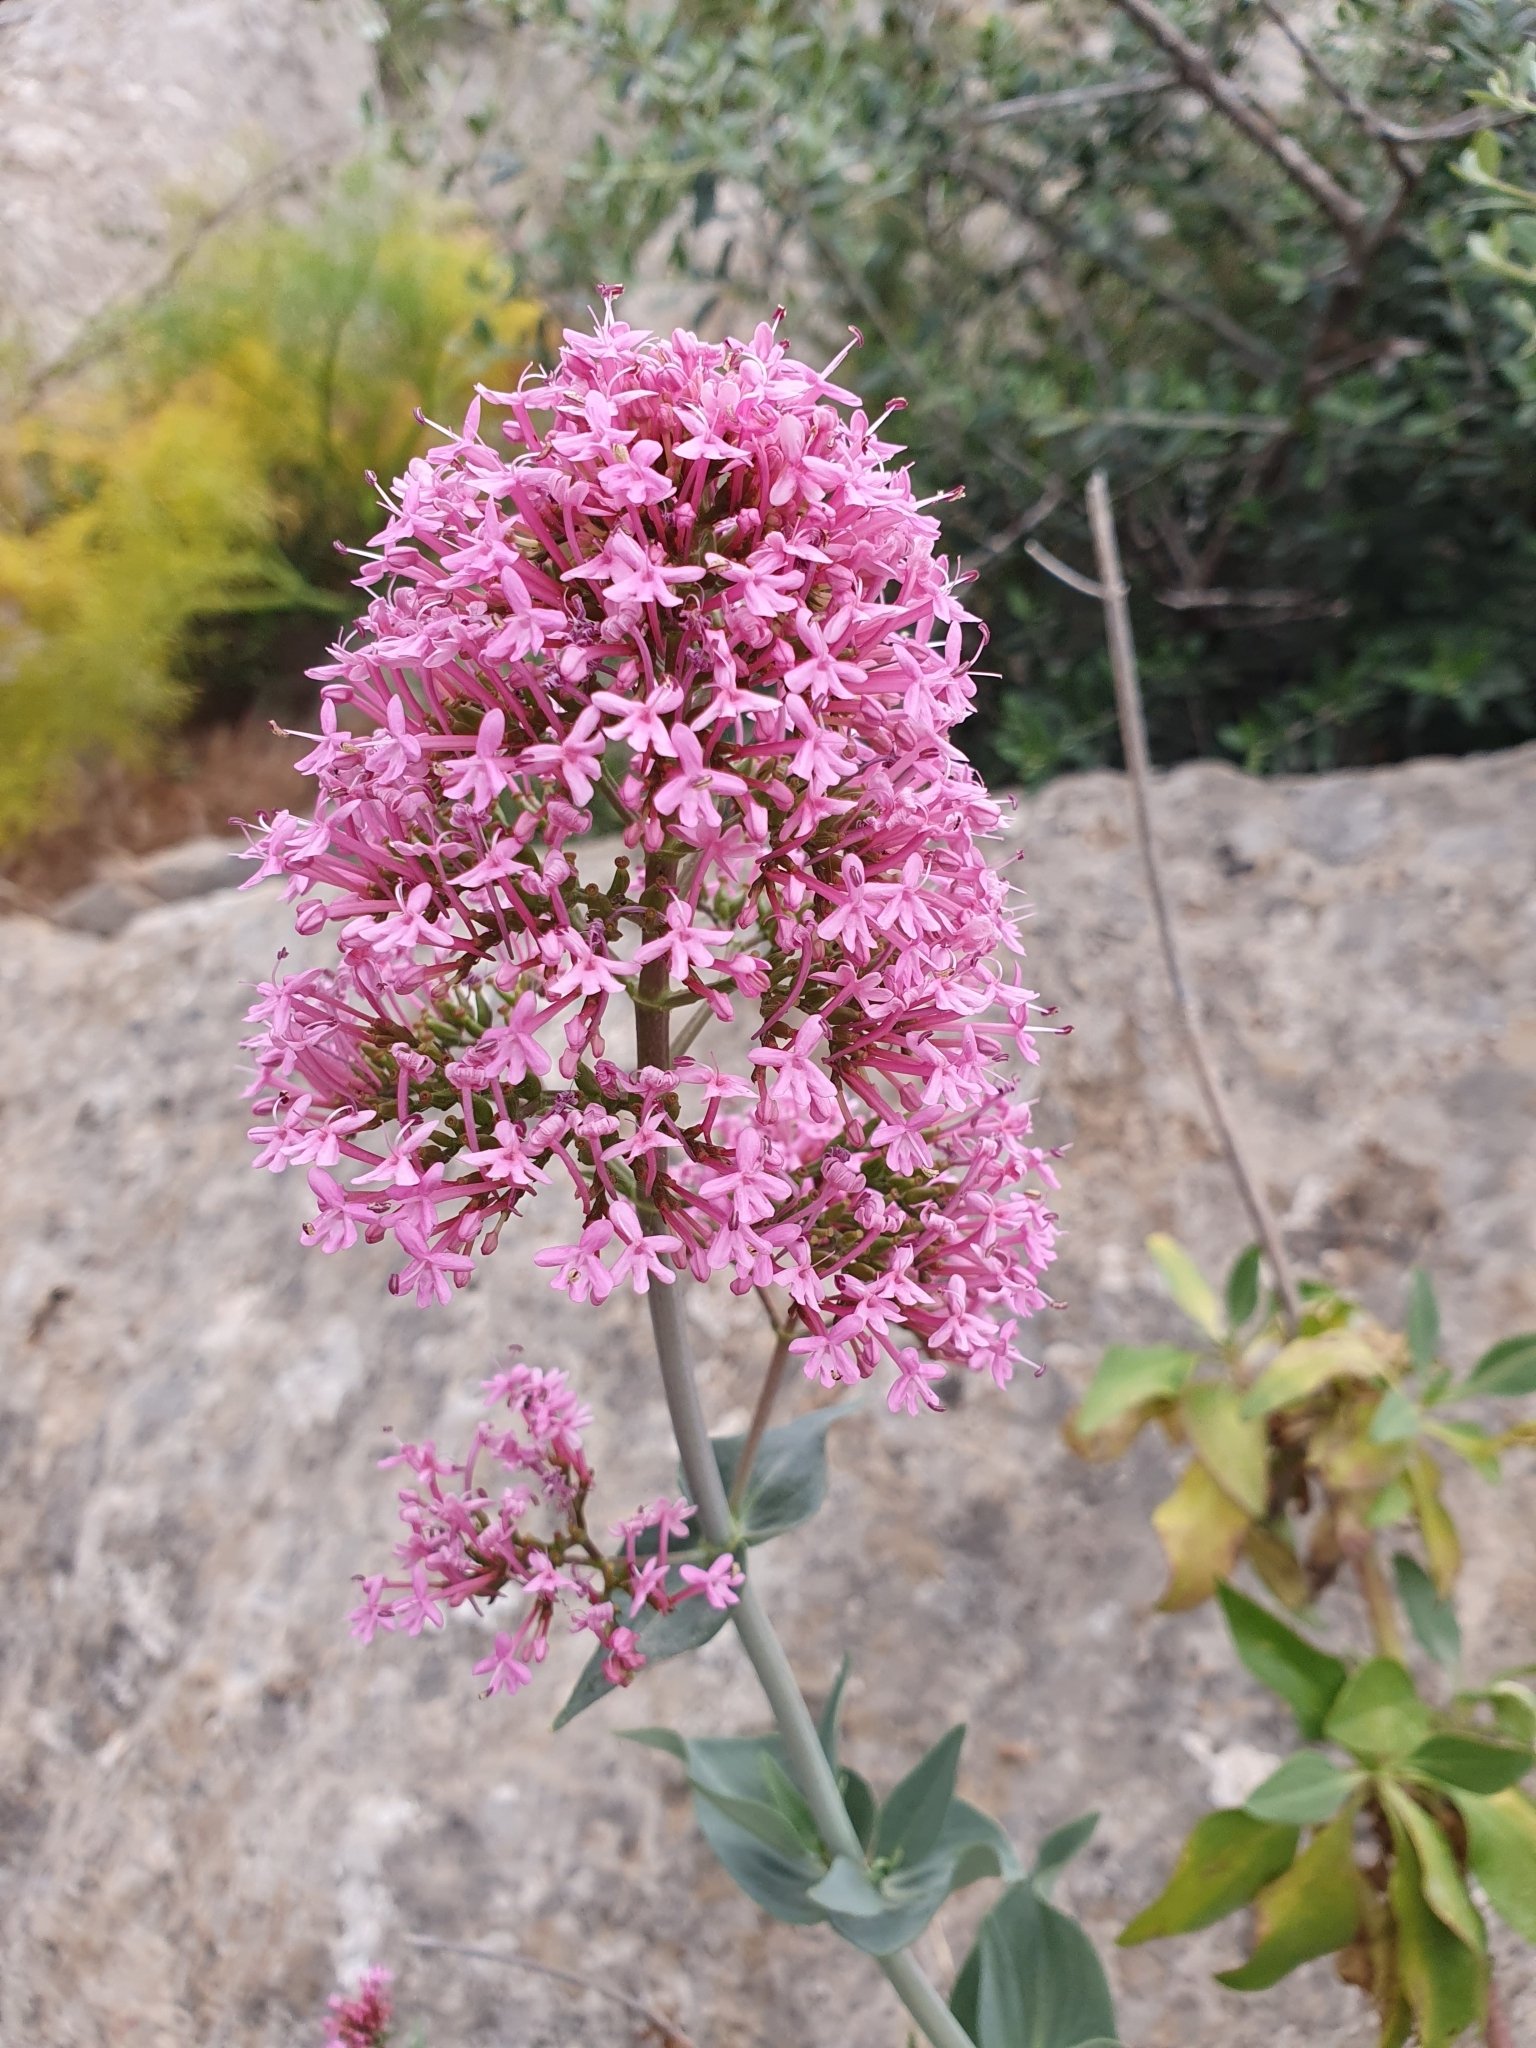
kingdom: Plantae
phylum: Tracheophyta
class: Magnoliopsida
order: Dipsacales
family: Caprifoliaceae
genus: Centranthus
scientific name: Centranthus ruber
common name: Red valerian
